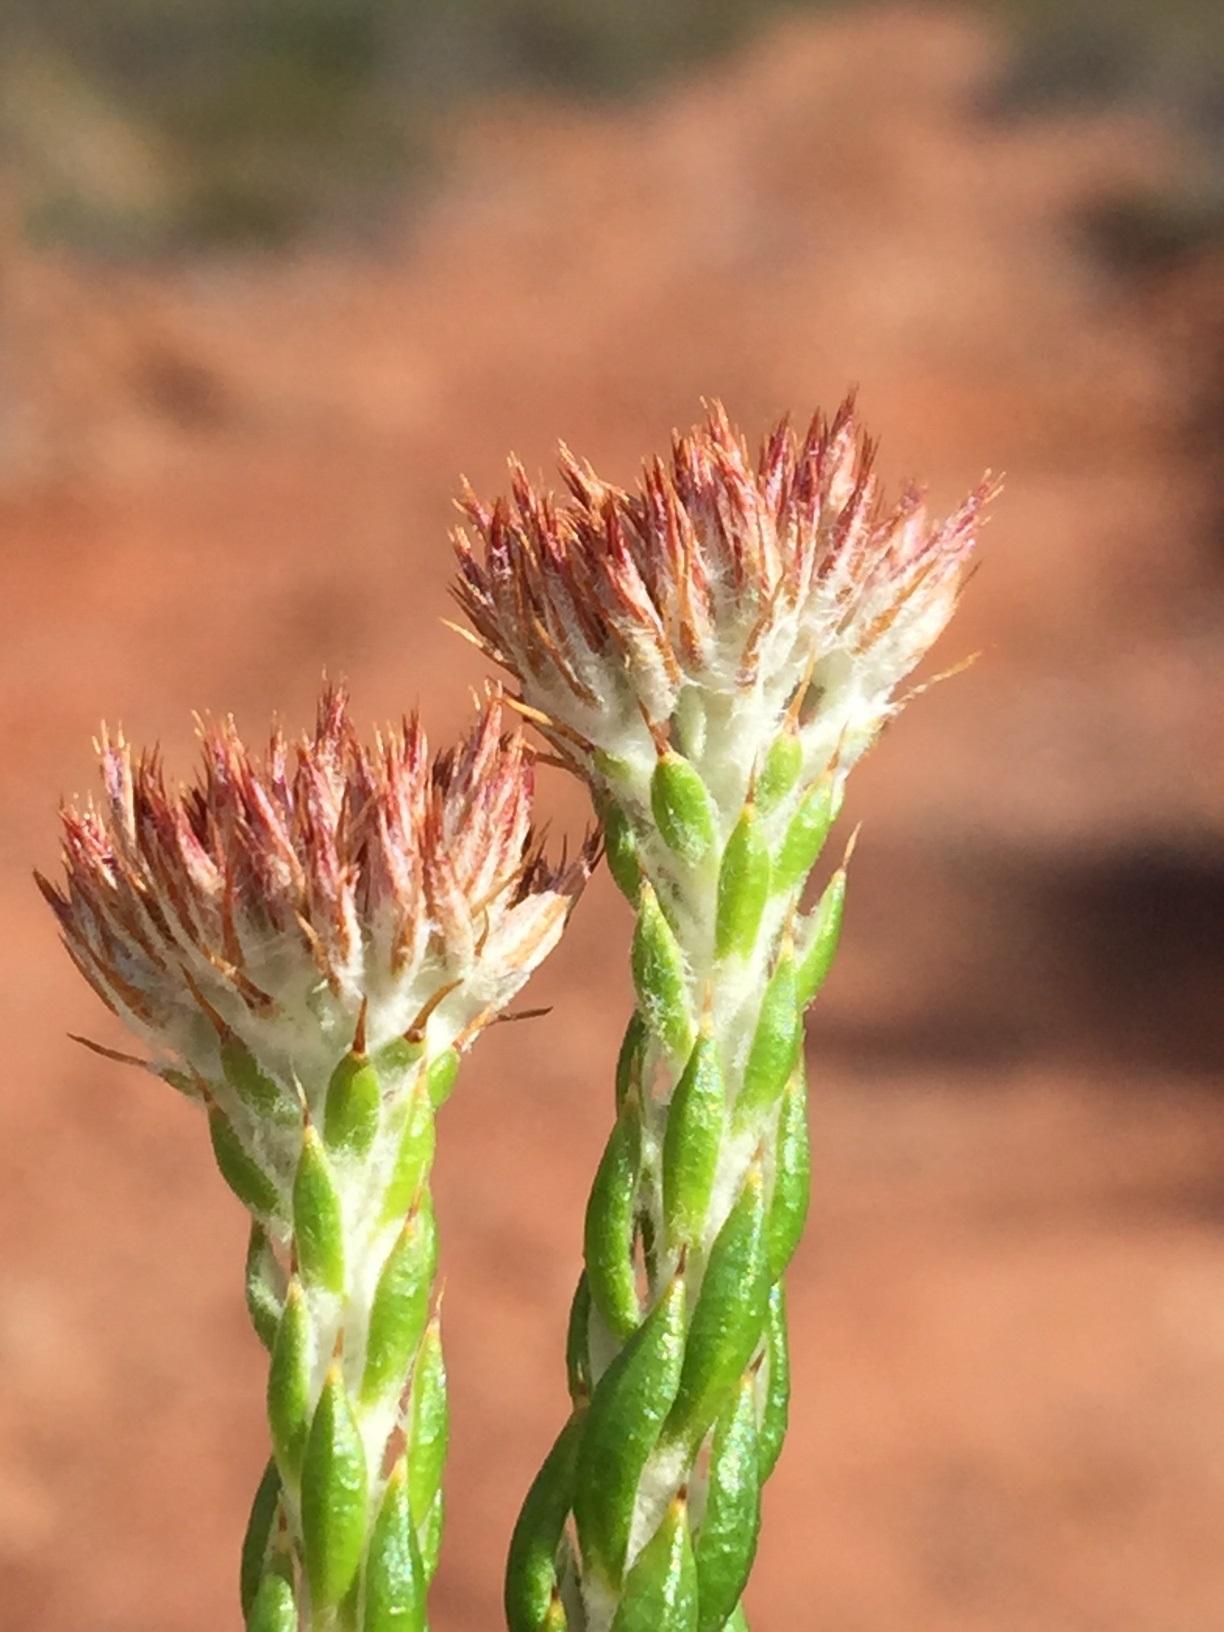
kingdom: Plantae
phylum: Tracheophyta
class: Magnoliopsida
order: Asterales
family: Asteraceae
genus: Metalasia
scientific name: Metalasia pulcherrima
